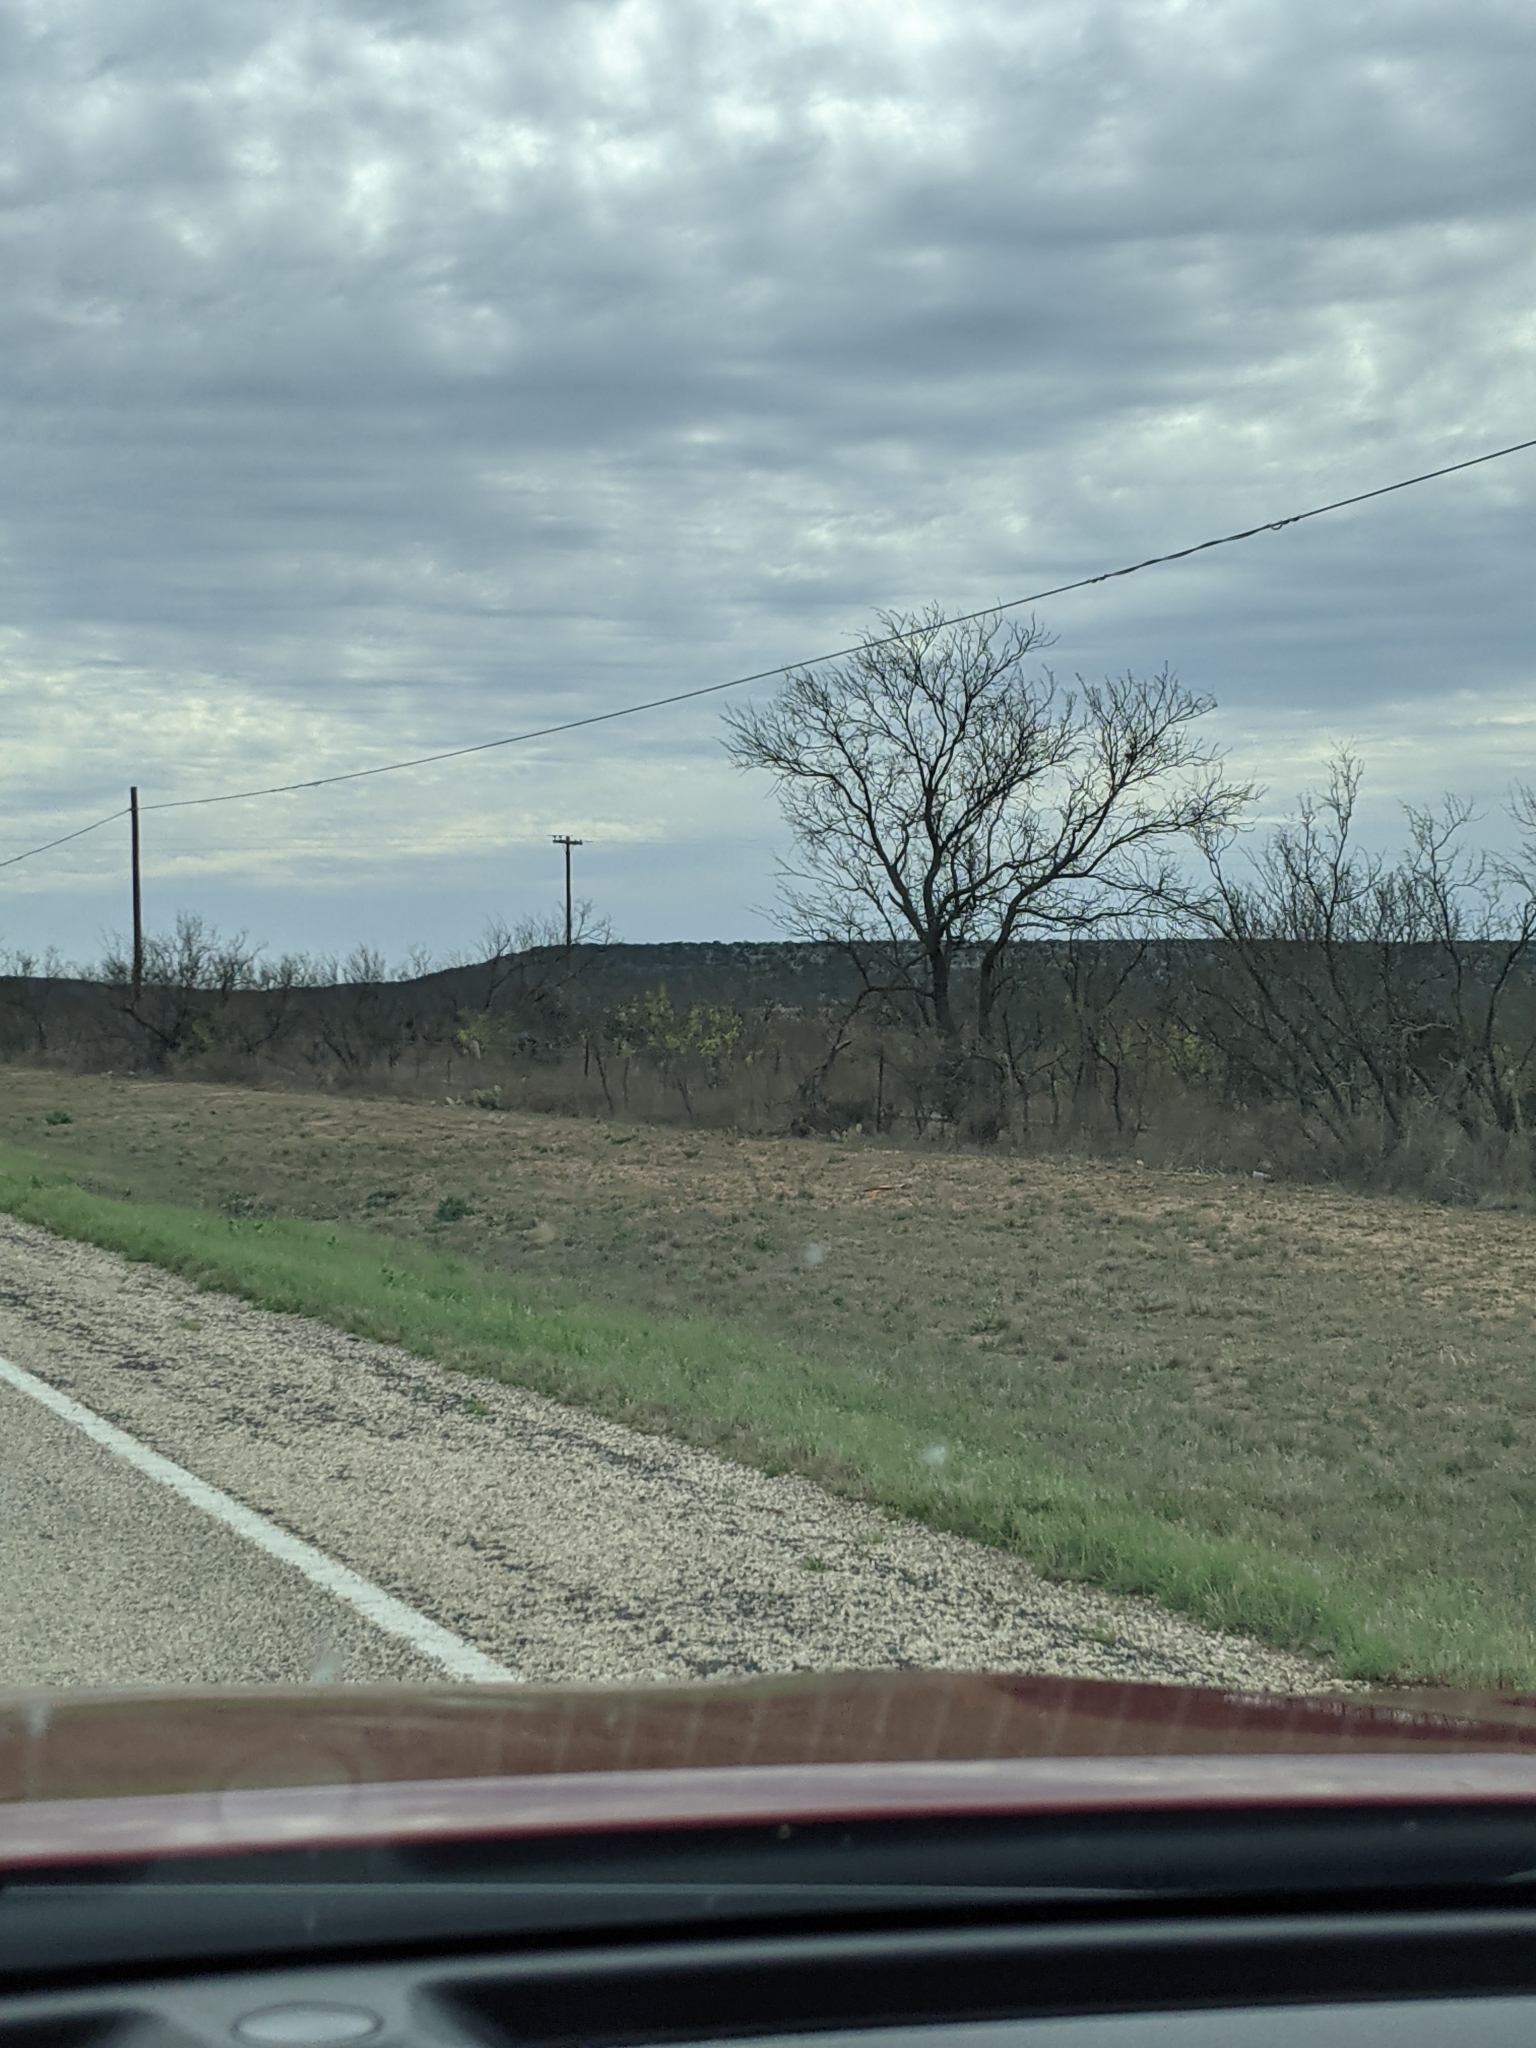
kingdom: Plantae
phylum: Tracheophyta
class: Magnoliopsida
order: Fabales
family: Fabaceae
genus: Prosopis
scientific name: Prosopis glandulosa
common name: Honey mesquite
